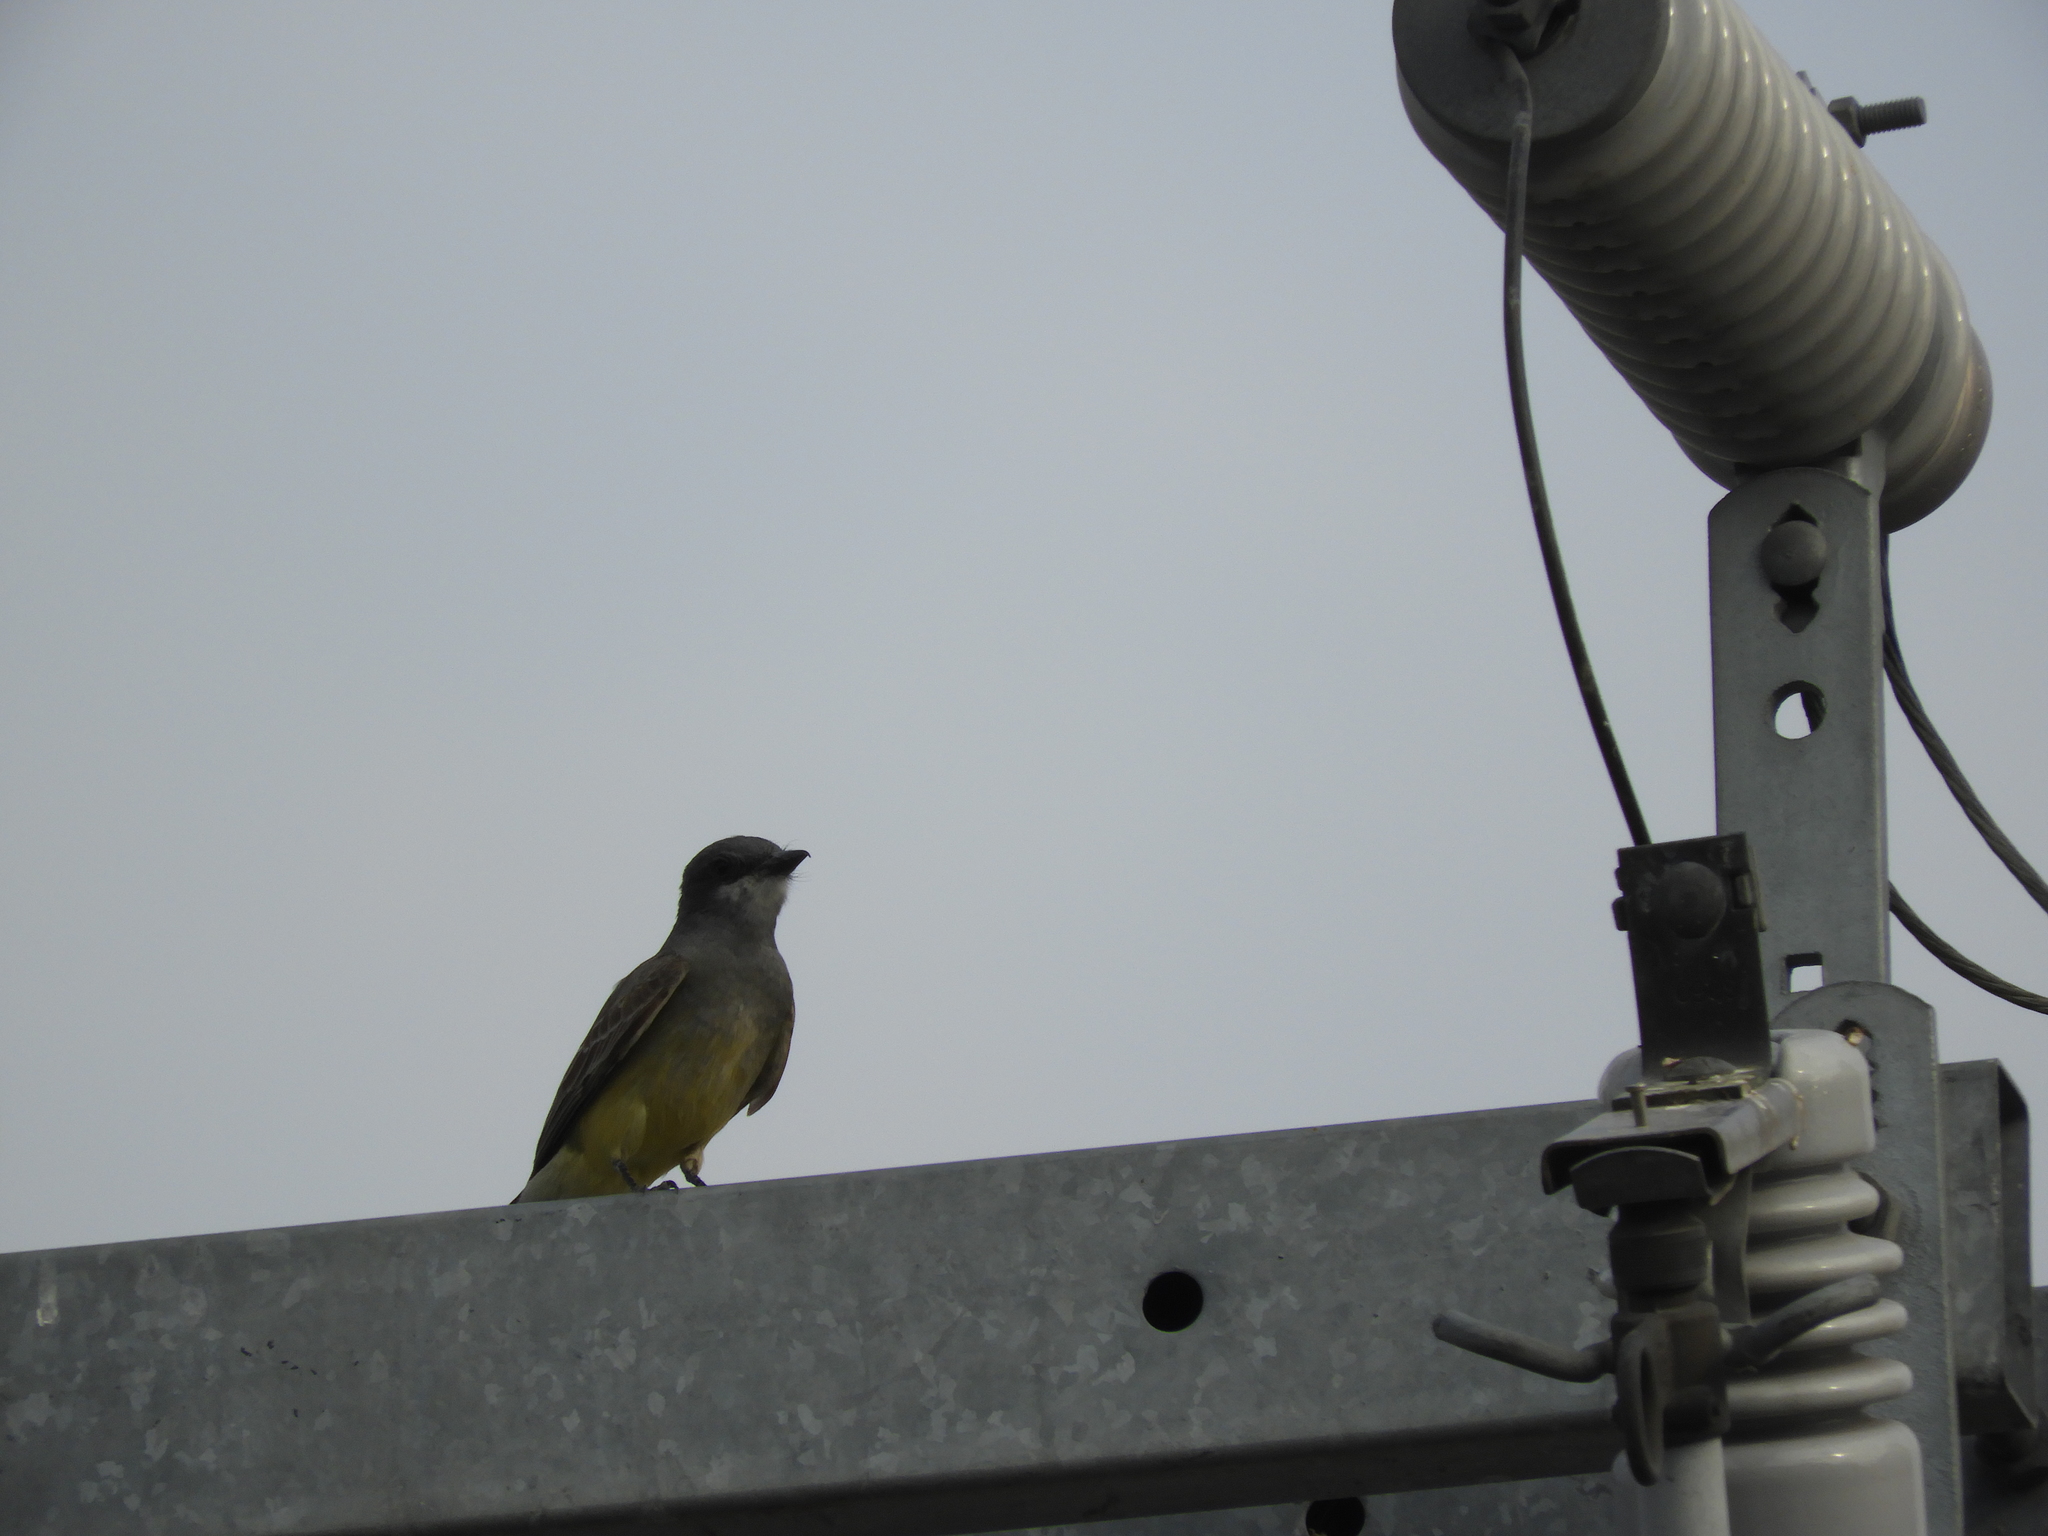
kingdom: Animalia
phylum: Chordata
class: Aves
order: Passeriformes
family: Tyrannidae
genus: Tyrannus
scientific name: Tyrannus vociferans
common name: Cassin's kingbird
